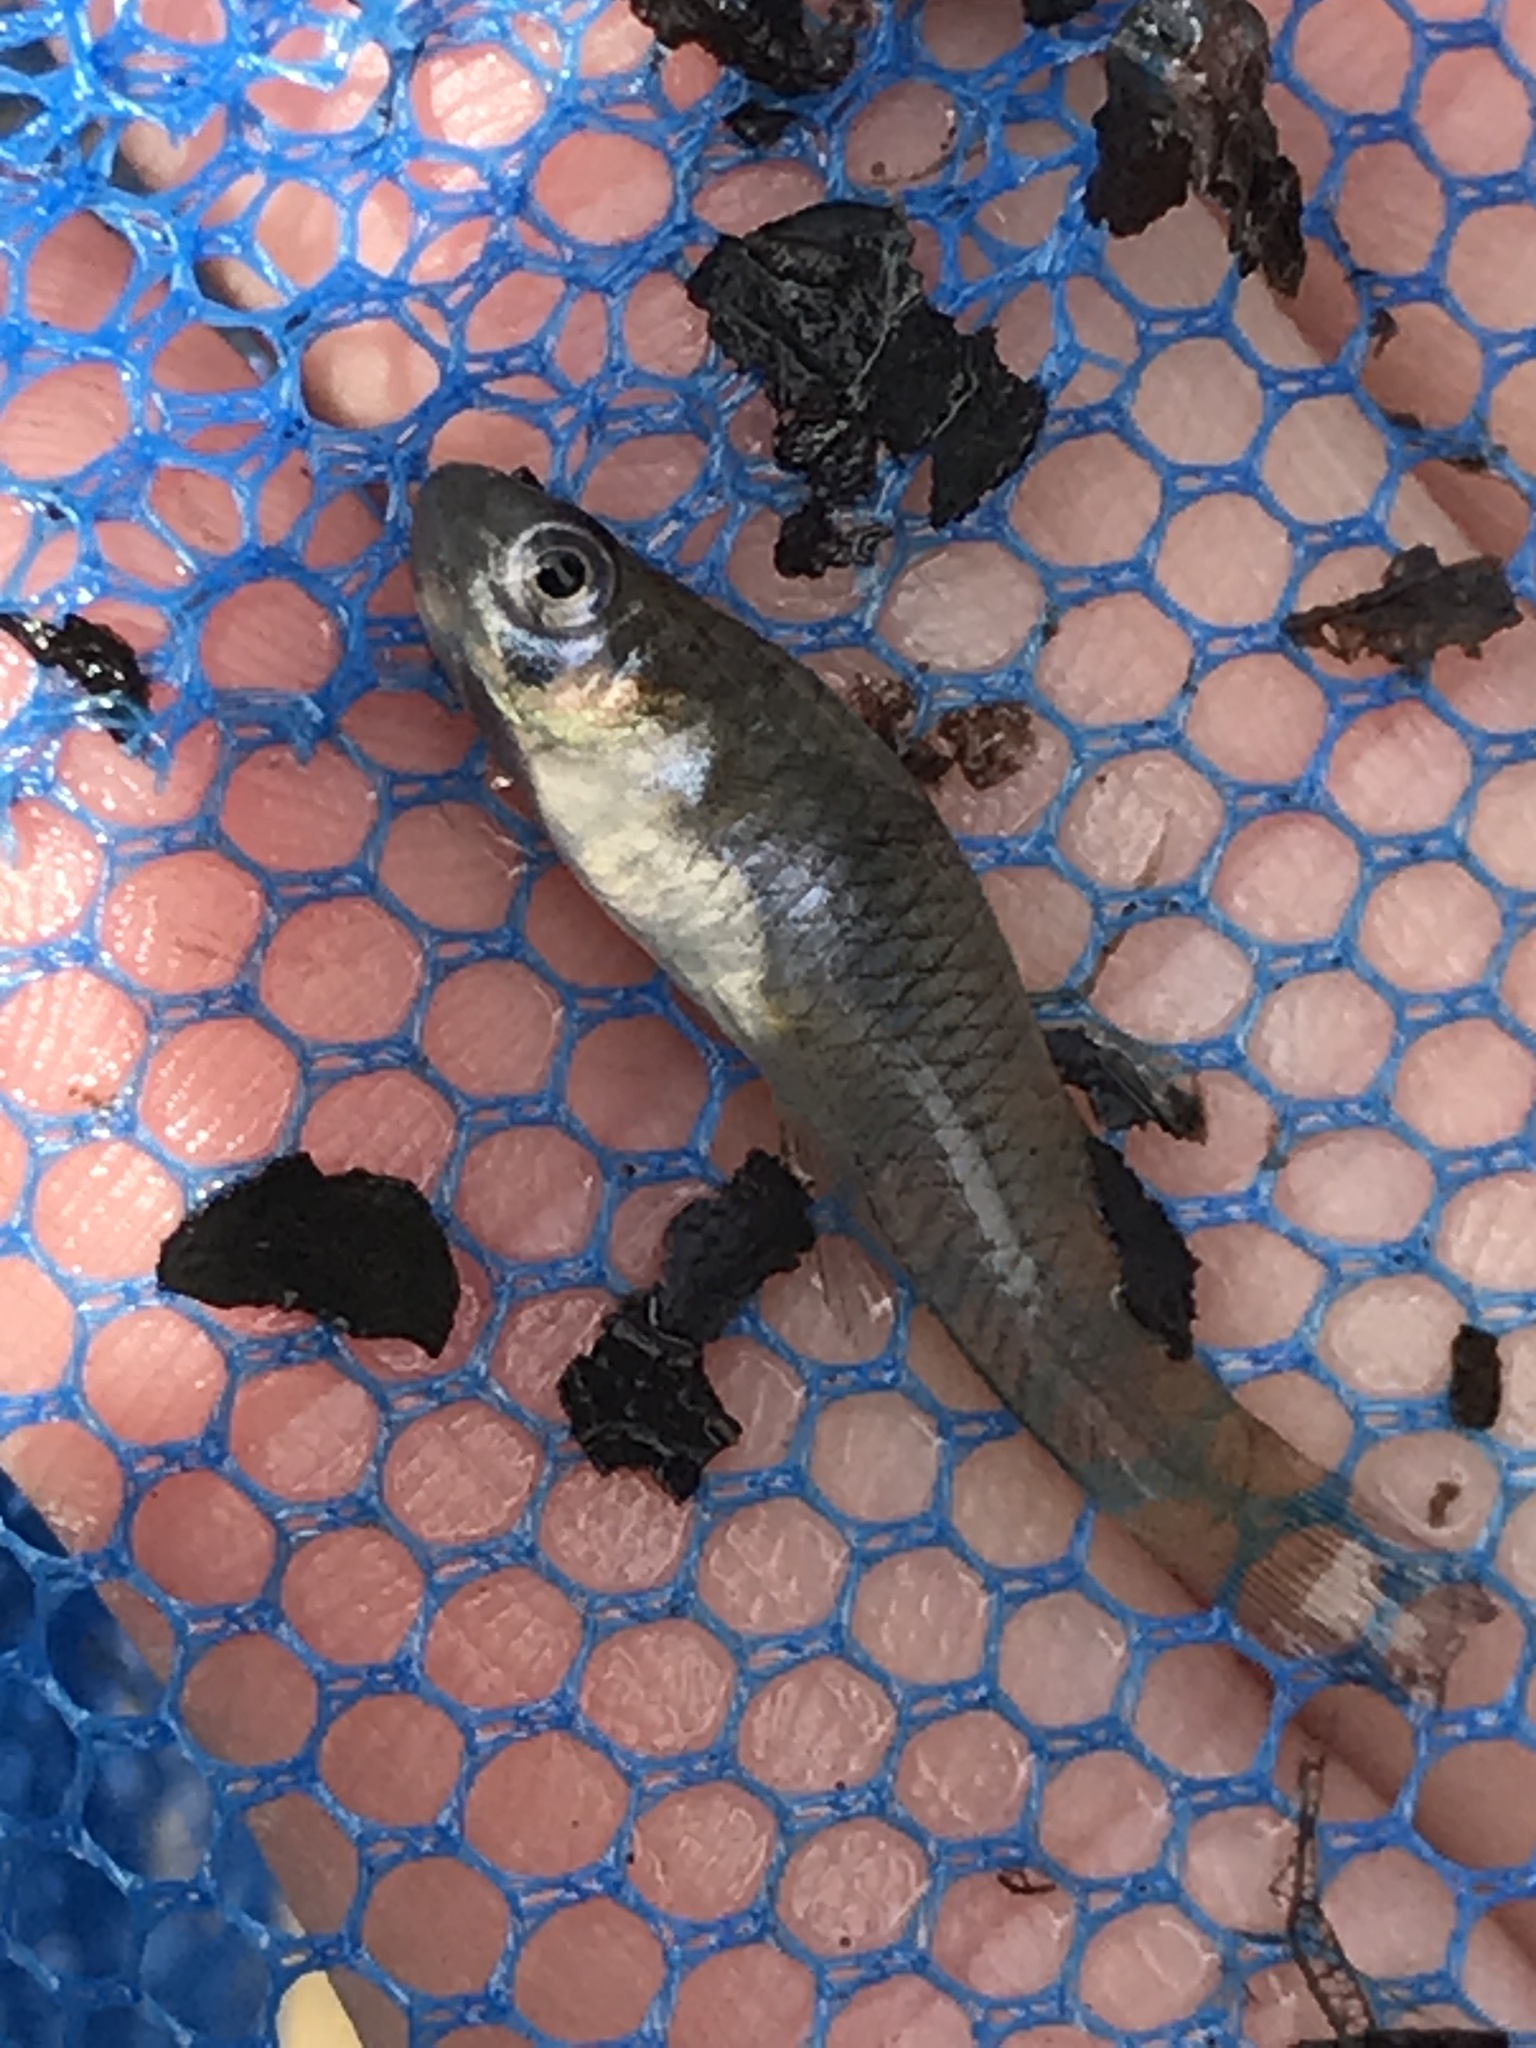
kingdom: Animalia
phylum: Chordata
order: Cyprinodontiformes
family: Poeciliidae
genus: Gambusia
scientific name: Gambusia affinis
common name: Mosquitofish
